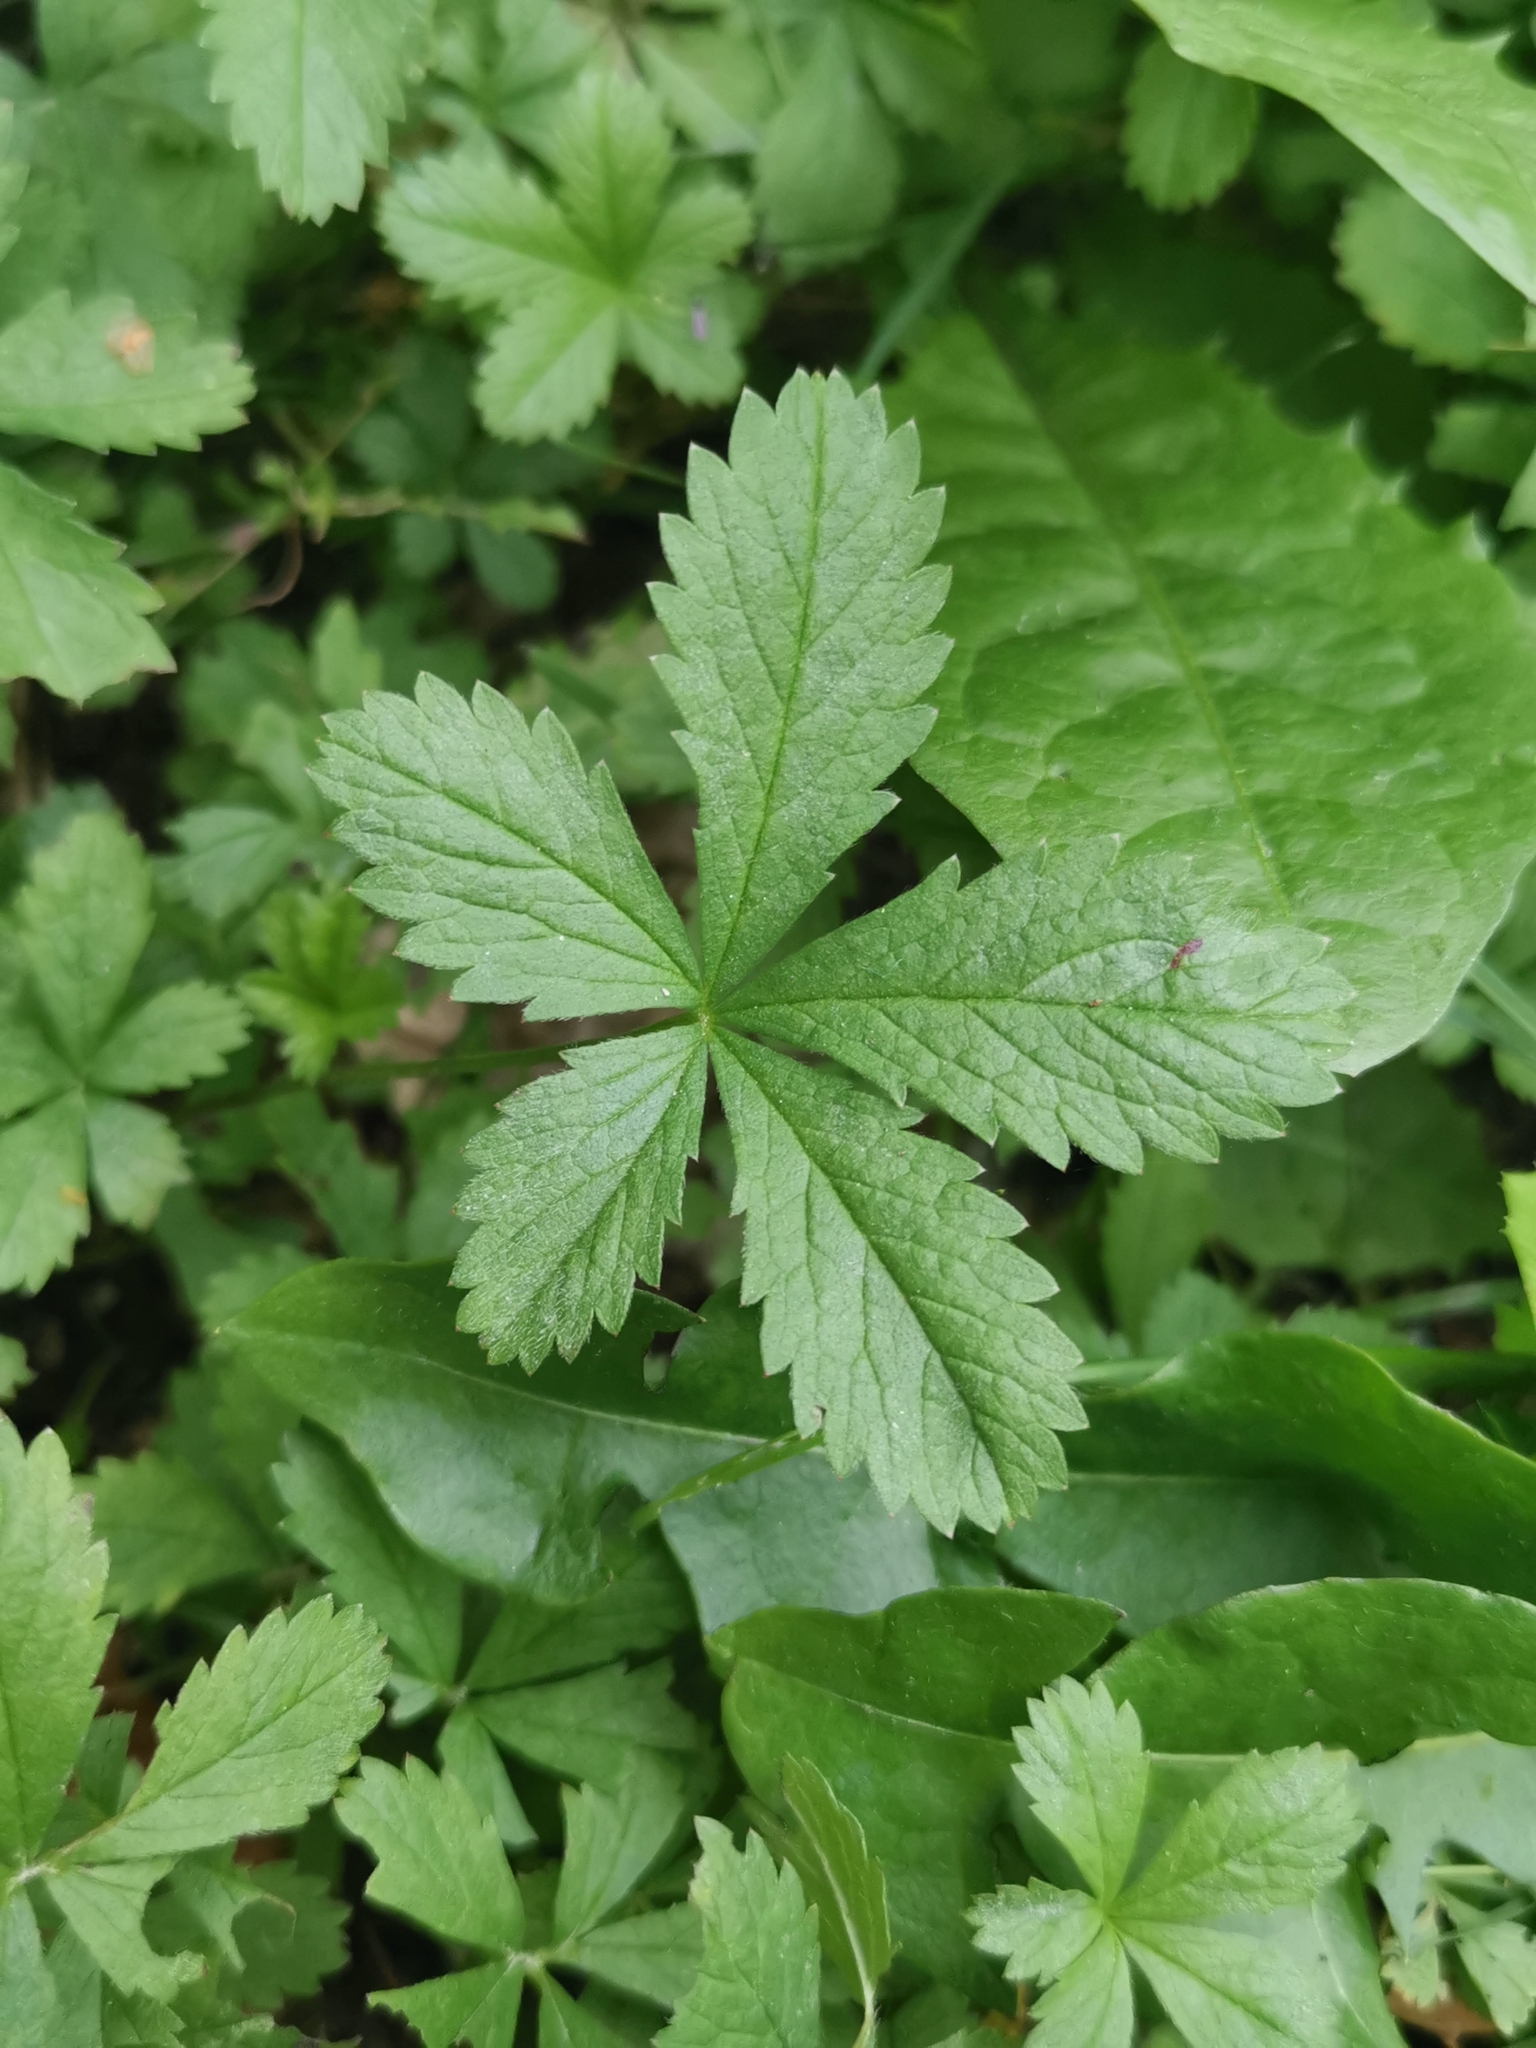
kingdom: Plantae
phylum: Tracheophyta
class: Magnoliopsida
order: Rosales
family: Rosaceae
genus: Potentilla
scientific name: Potentilla reptans
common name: Creeping cinquefoil
